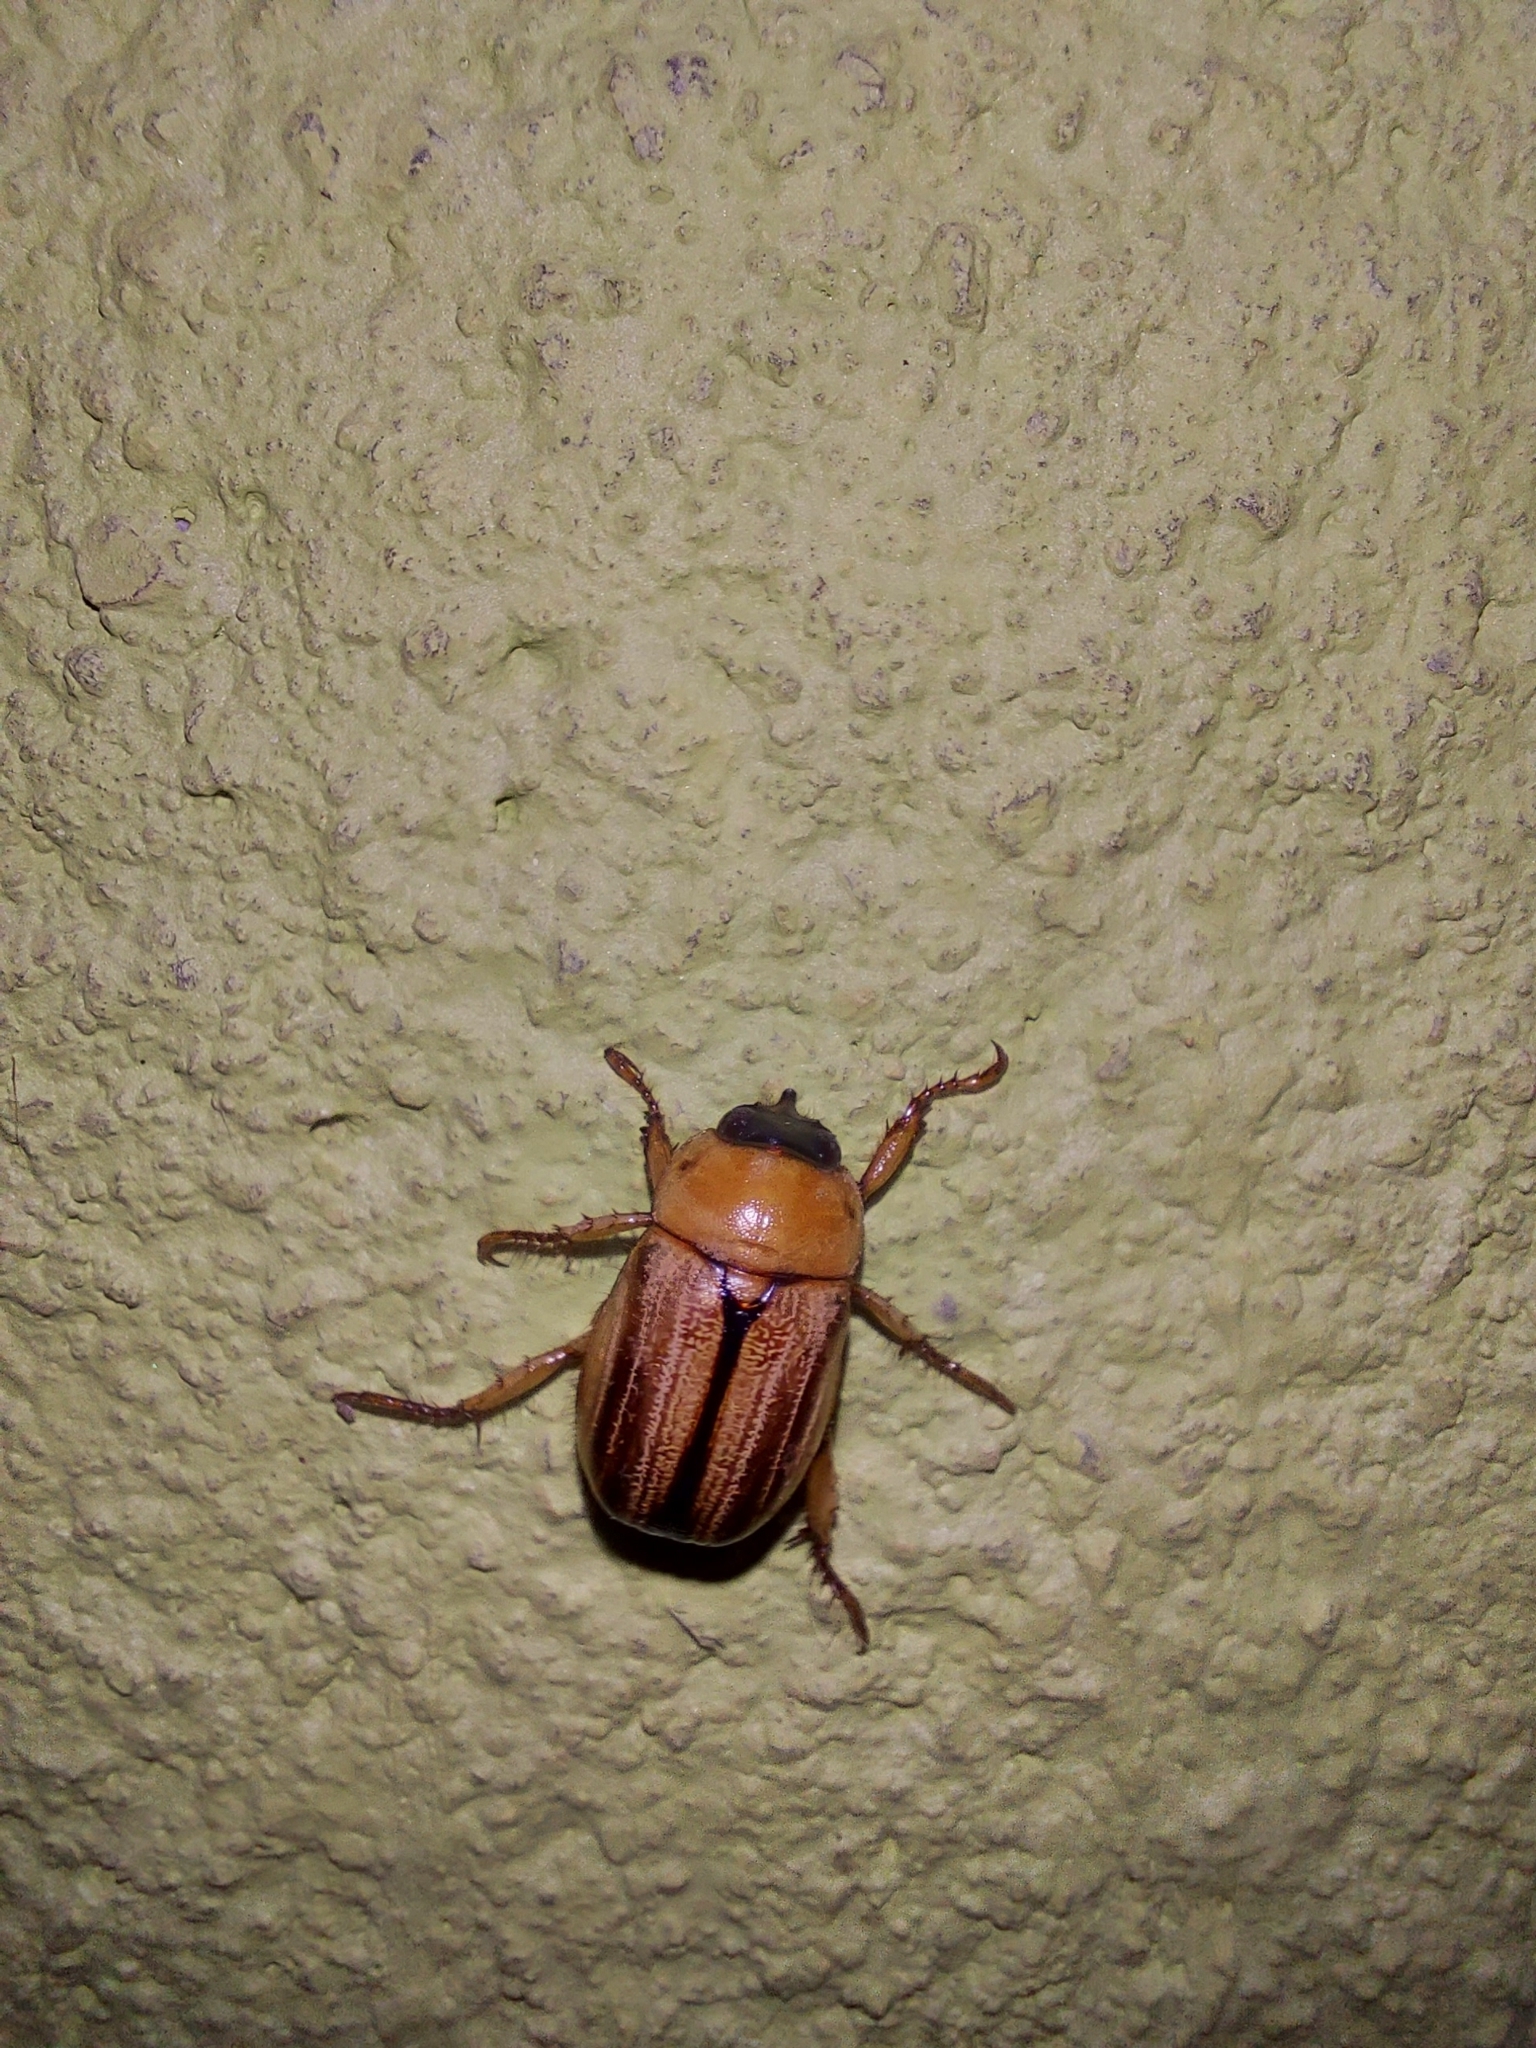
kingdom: Animalia
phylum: Arthropoda
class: Insecta
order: Coleoptera
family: Scarabaeidae
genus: Anomala
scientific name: Anomala pallida
